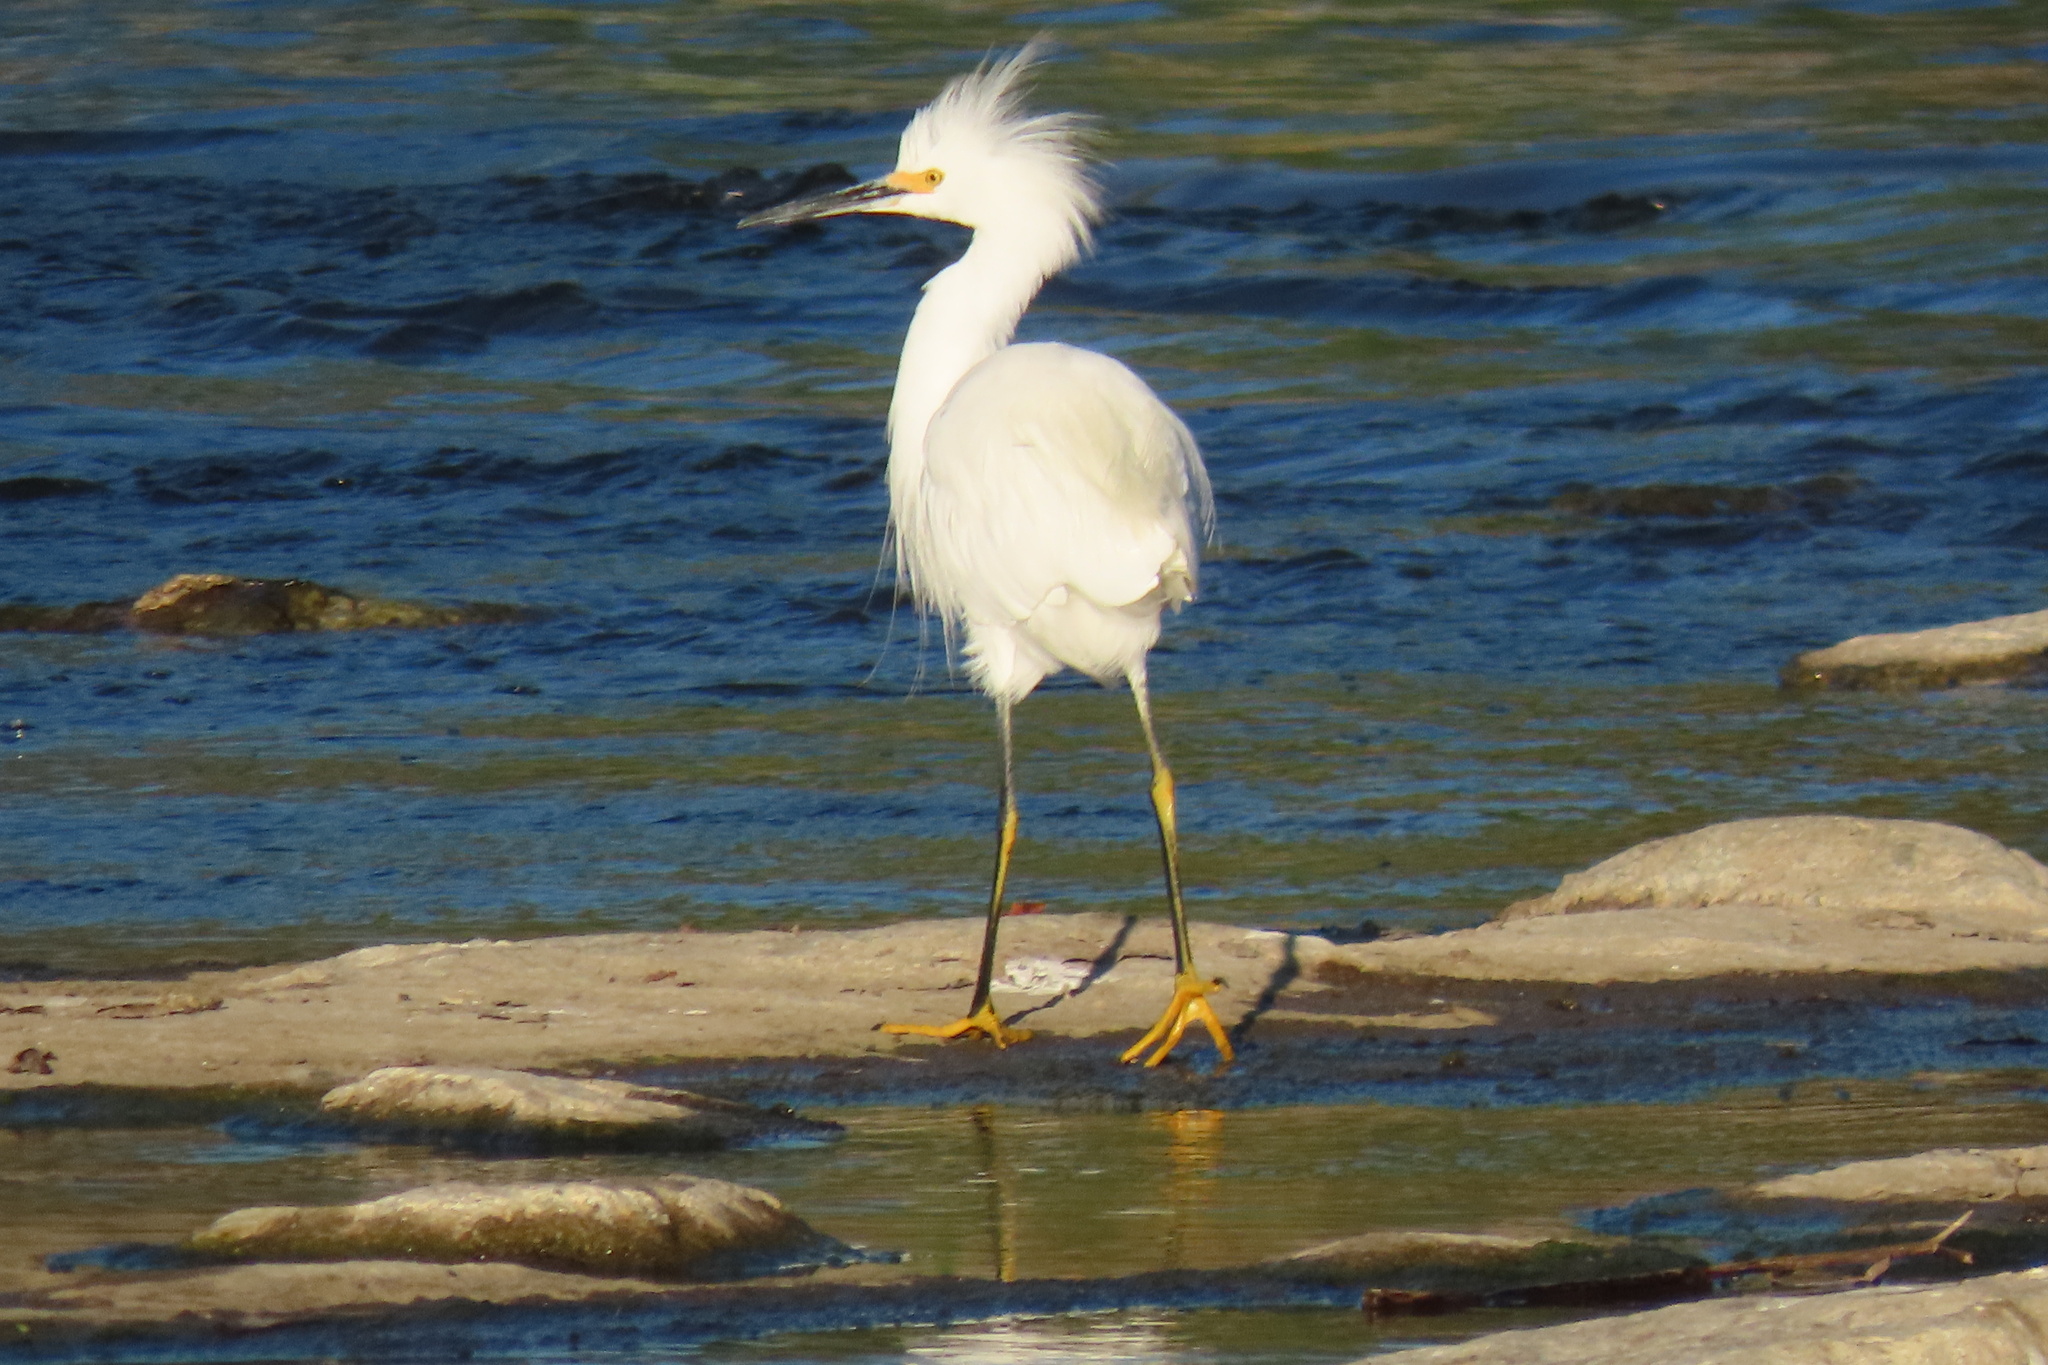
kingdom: Animalia
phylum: Chordata
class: Aves
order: Pelecaniformes
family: Ardeidae
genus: Egretta
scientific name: Egretta thula
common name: Snowy egret
